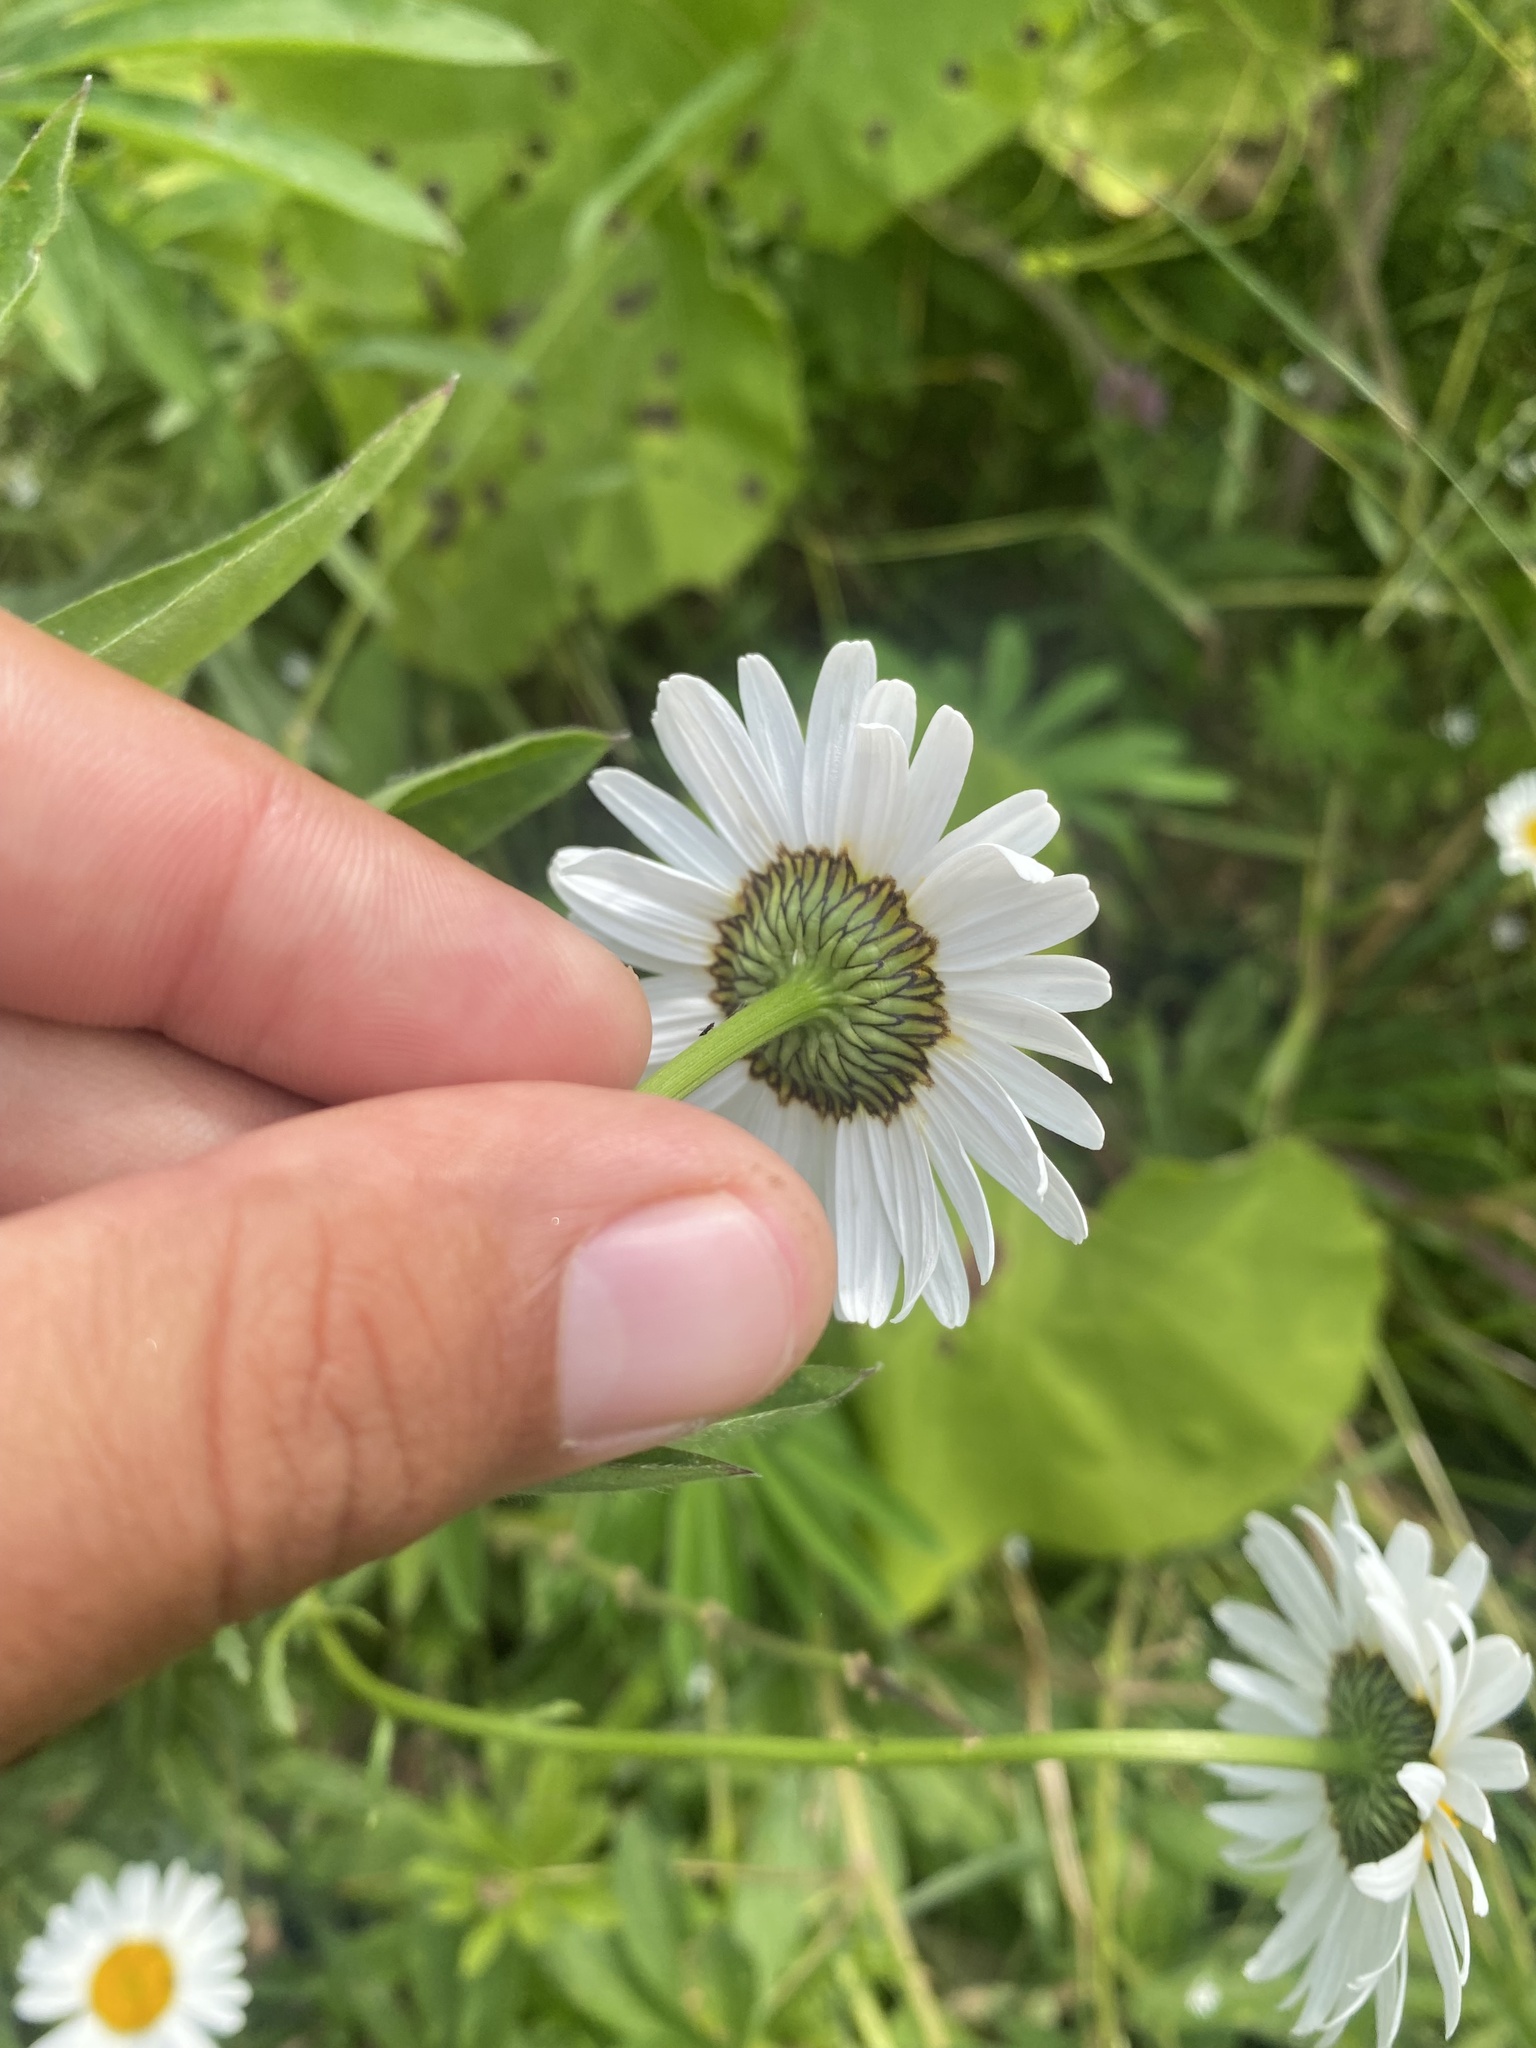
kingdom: Plantae
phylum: Tracheophyta
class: Magnoliopsida
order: Asterales
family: Asteraceae
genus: Leucanthemum
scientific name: Leucanthemum vulgare
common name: Oxeye daisy
